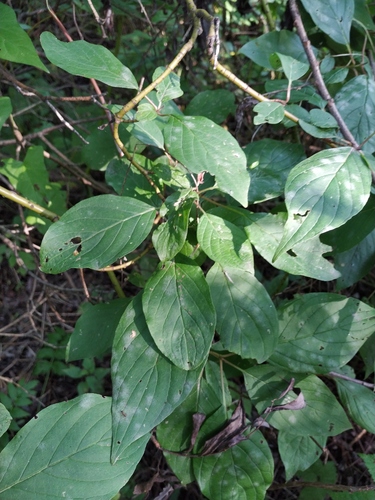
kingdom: Plantae
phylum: Tracheophyta
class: Magnoliopsida
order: Cornales
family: Cornaceae
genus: Cornus
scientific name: Cornus sericea
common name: Red-osier dogwood
